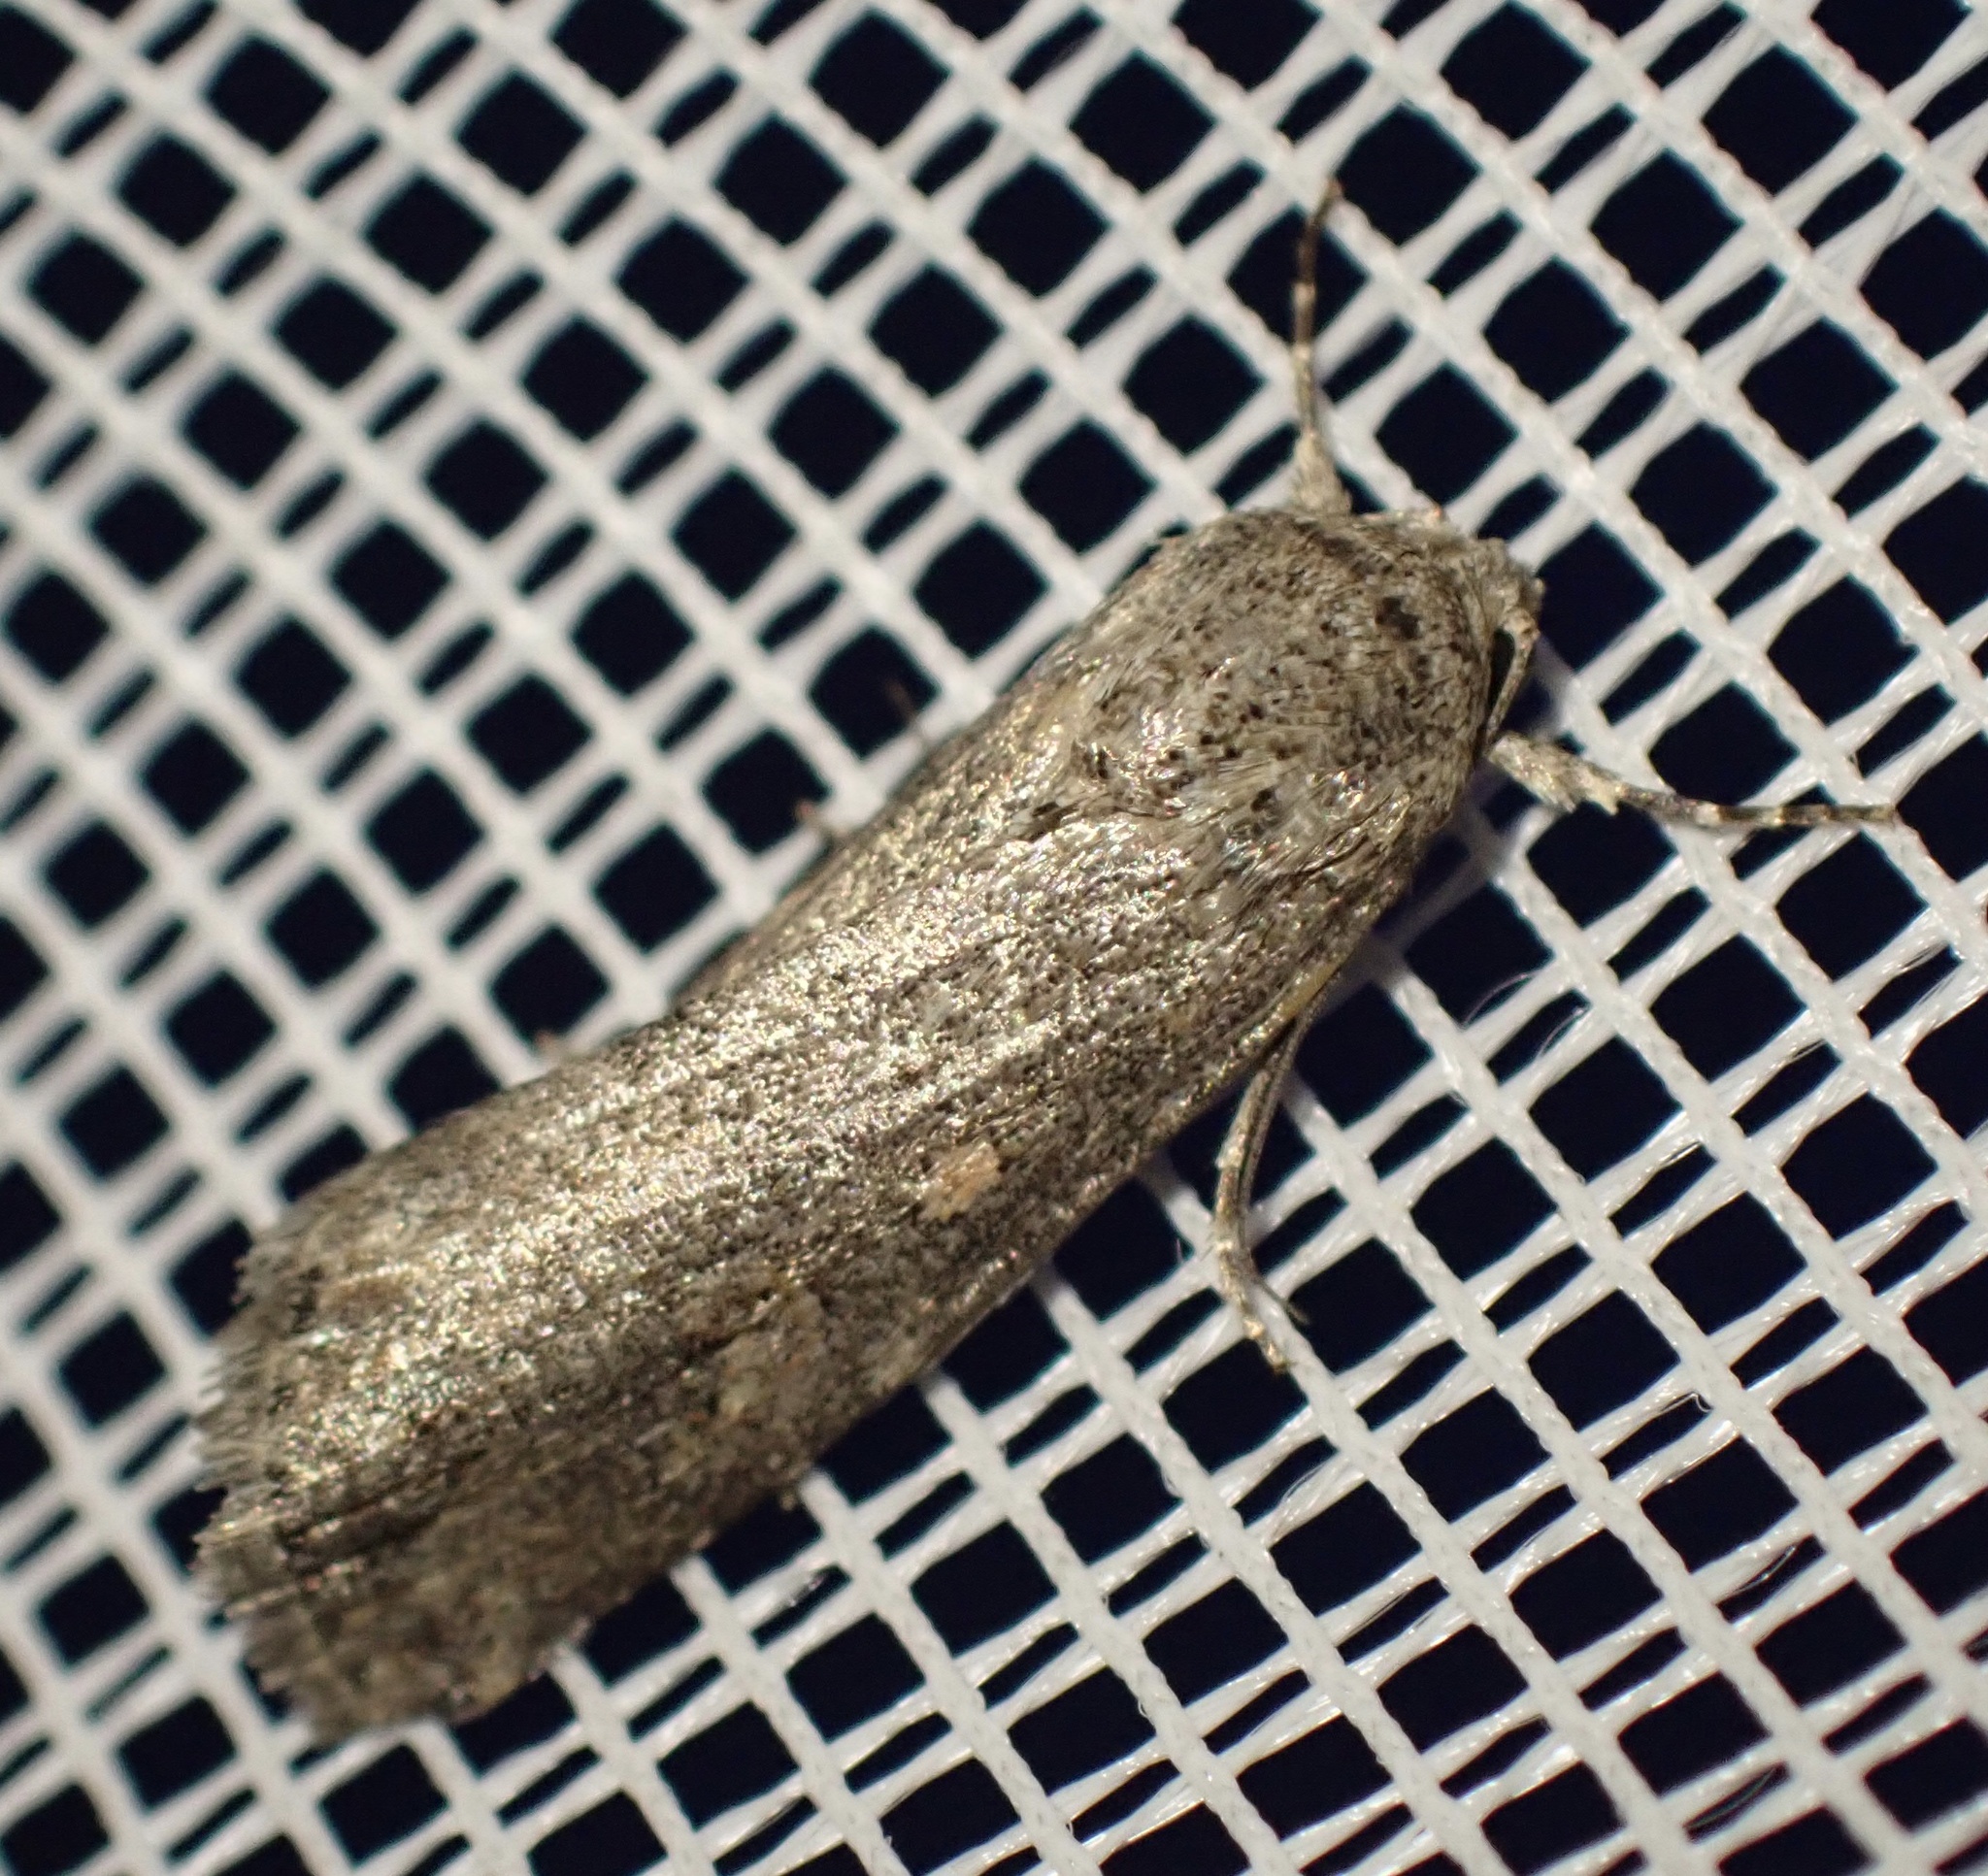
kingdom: Animalia
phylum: Arthropoda
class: Insecta
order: Lepidoptera
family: Noctuidae
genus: Spodoptera
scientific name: Spodoptera exigua
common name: Beet armyworm
